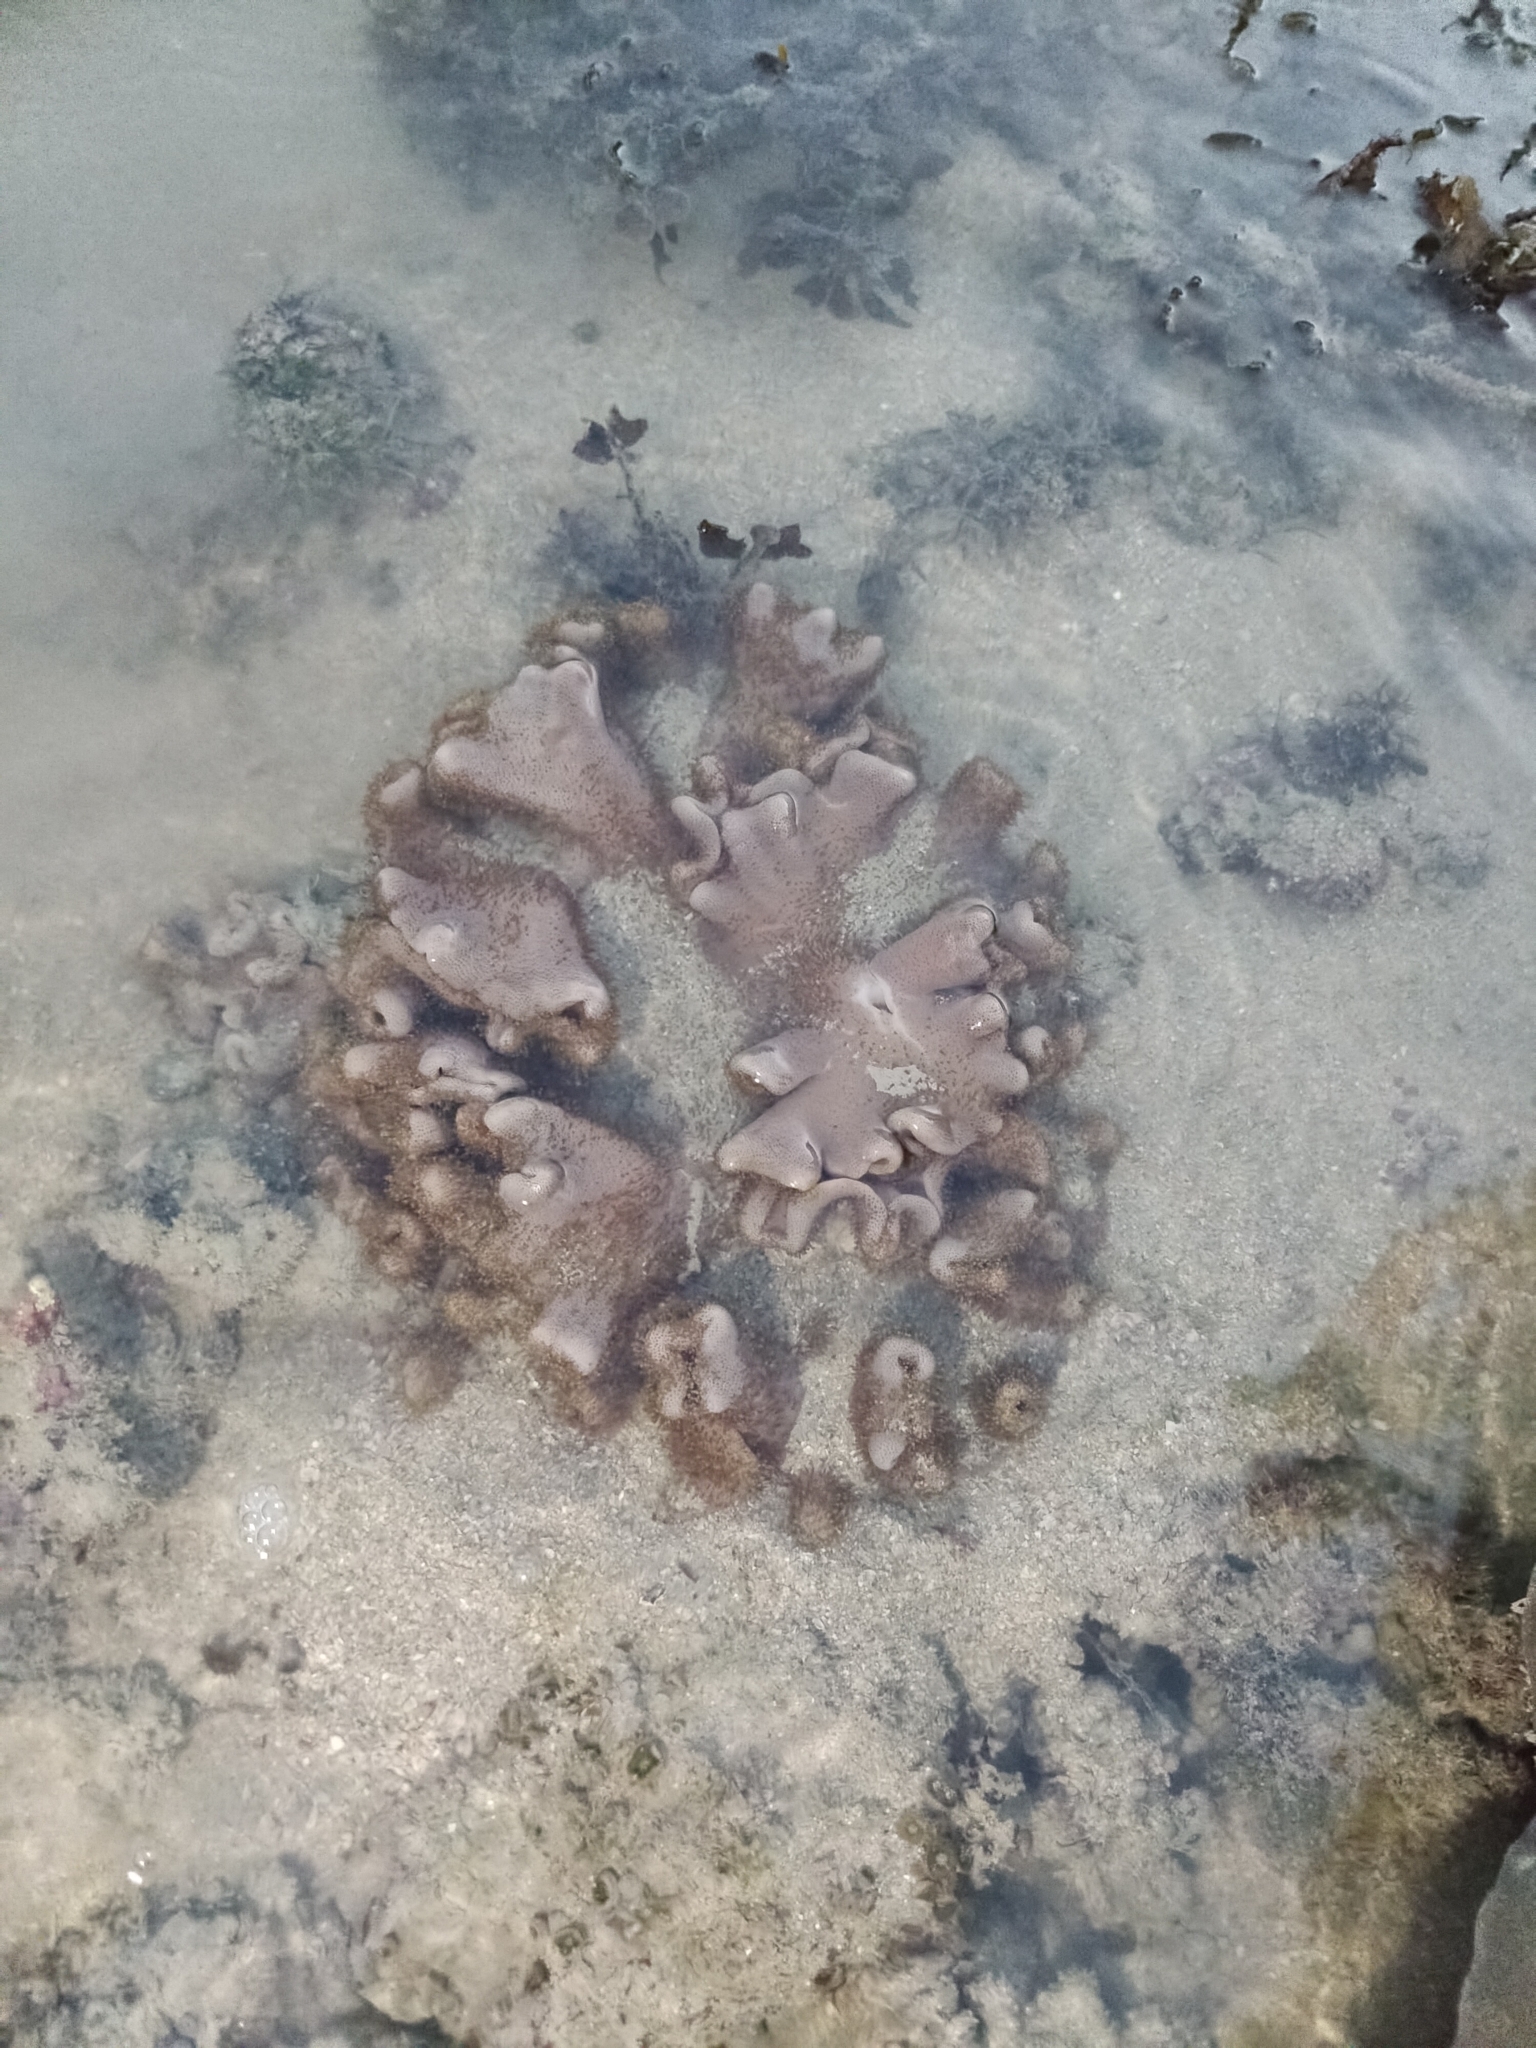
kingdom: Animalia
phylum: Cnidaria
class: Anthozoa
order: Malacalcyonacea
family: Sarcophytidae
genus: Lobophytum
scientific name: Lobophytum sarcophytoides
